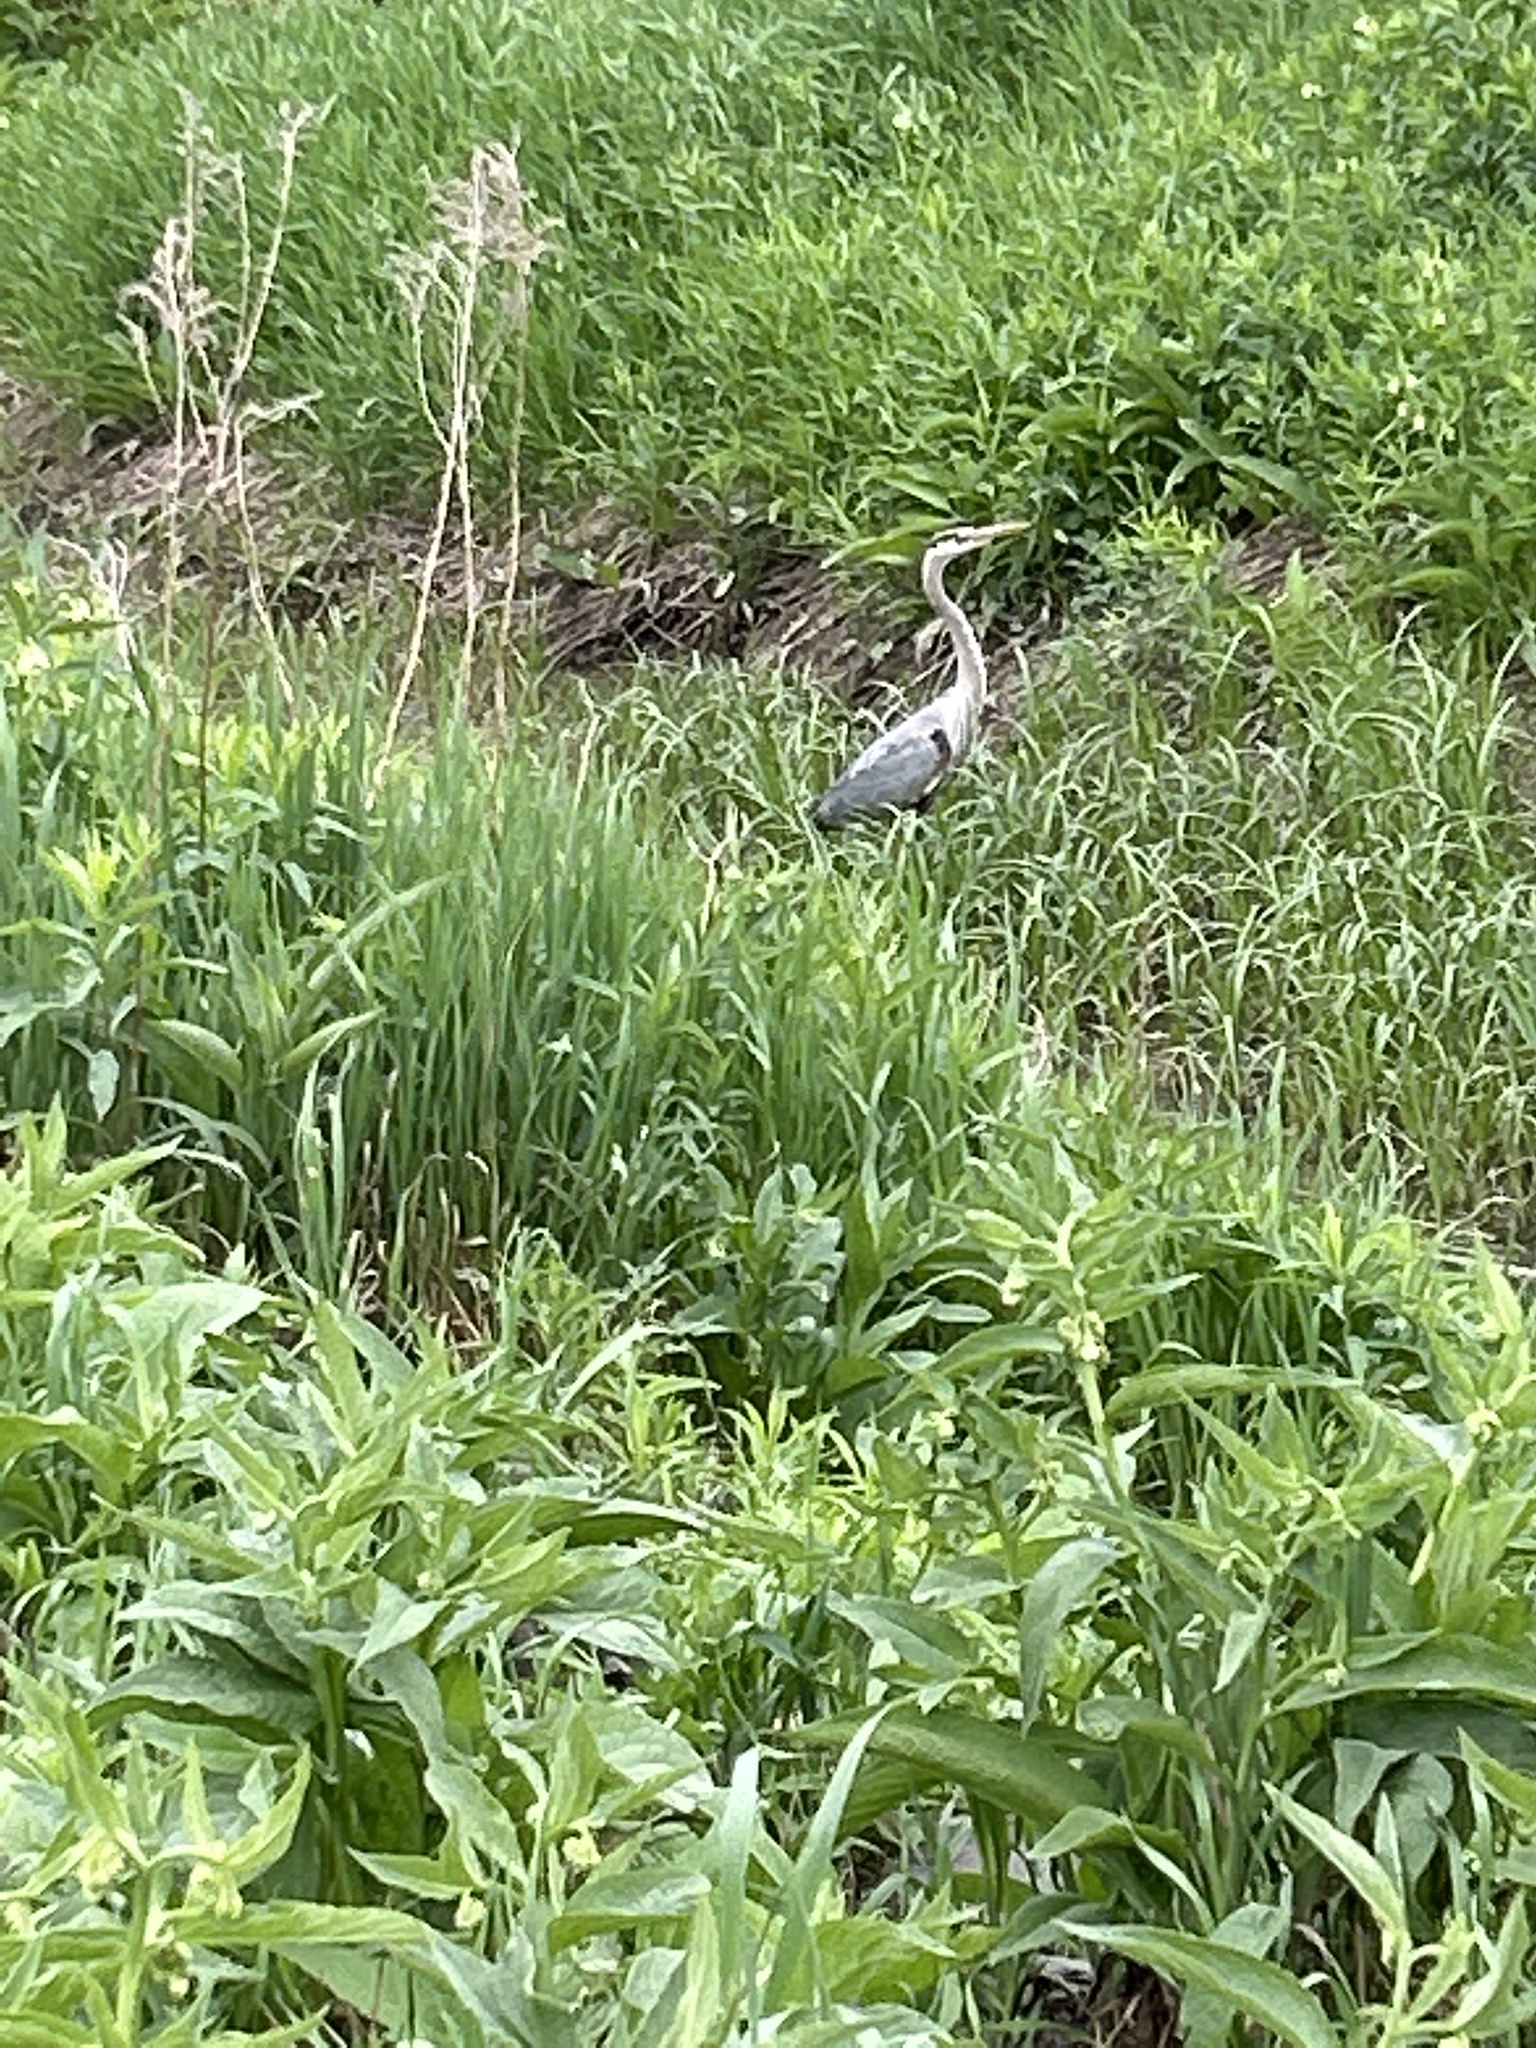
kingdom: Animalia
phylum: Chordata
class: Aves
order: Pelecaniformes
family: Ardeidae
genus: Ardea
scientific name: Ardea herodias
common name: Great blue heron
